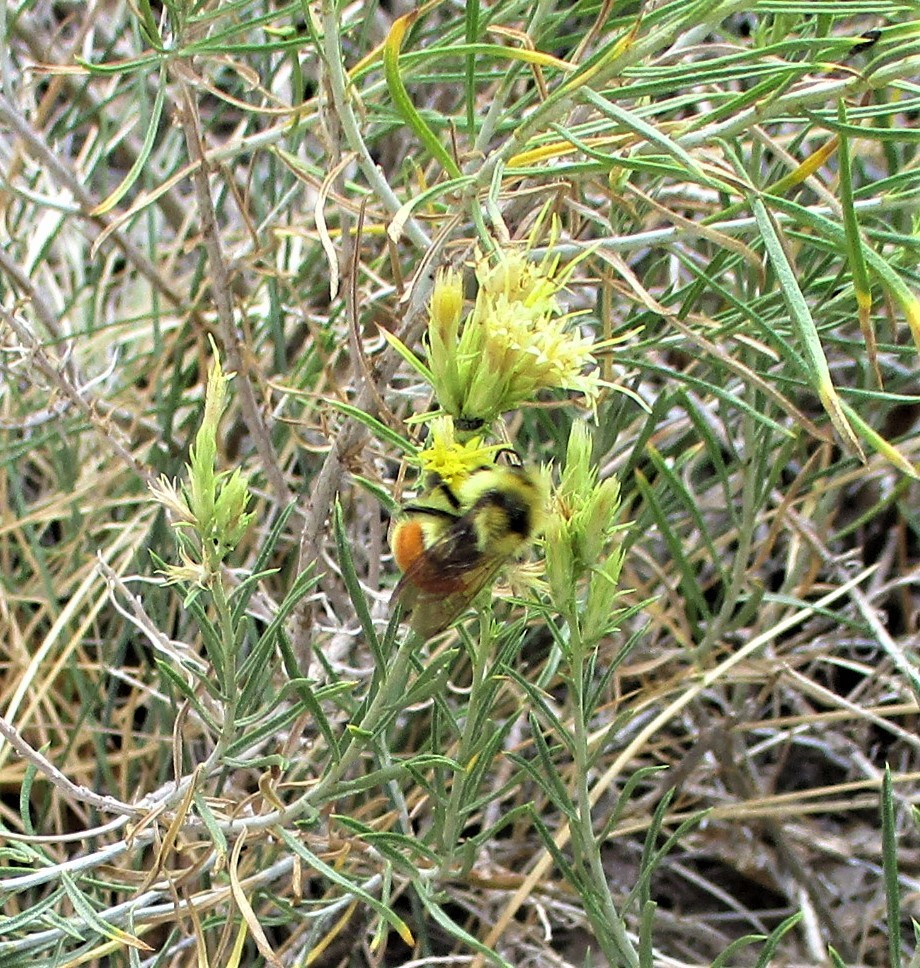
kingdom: Animalia
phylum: Arthropoda
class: Insecta
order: Hymenoptera
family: Apidae
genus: Bombus
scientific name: Bombus huntii
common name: Hunt bumble bee
